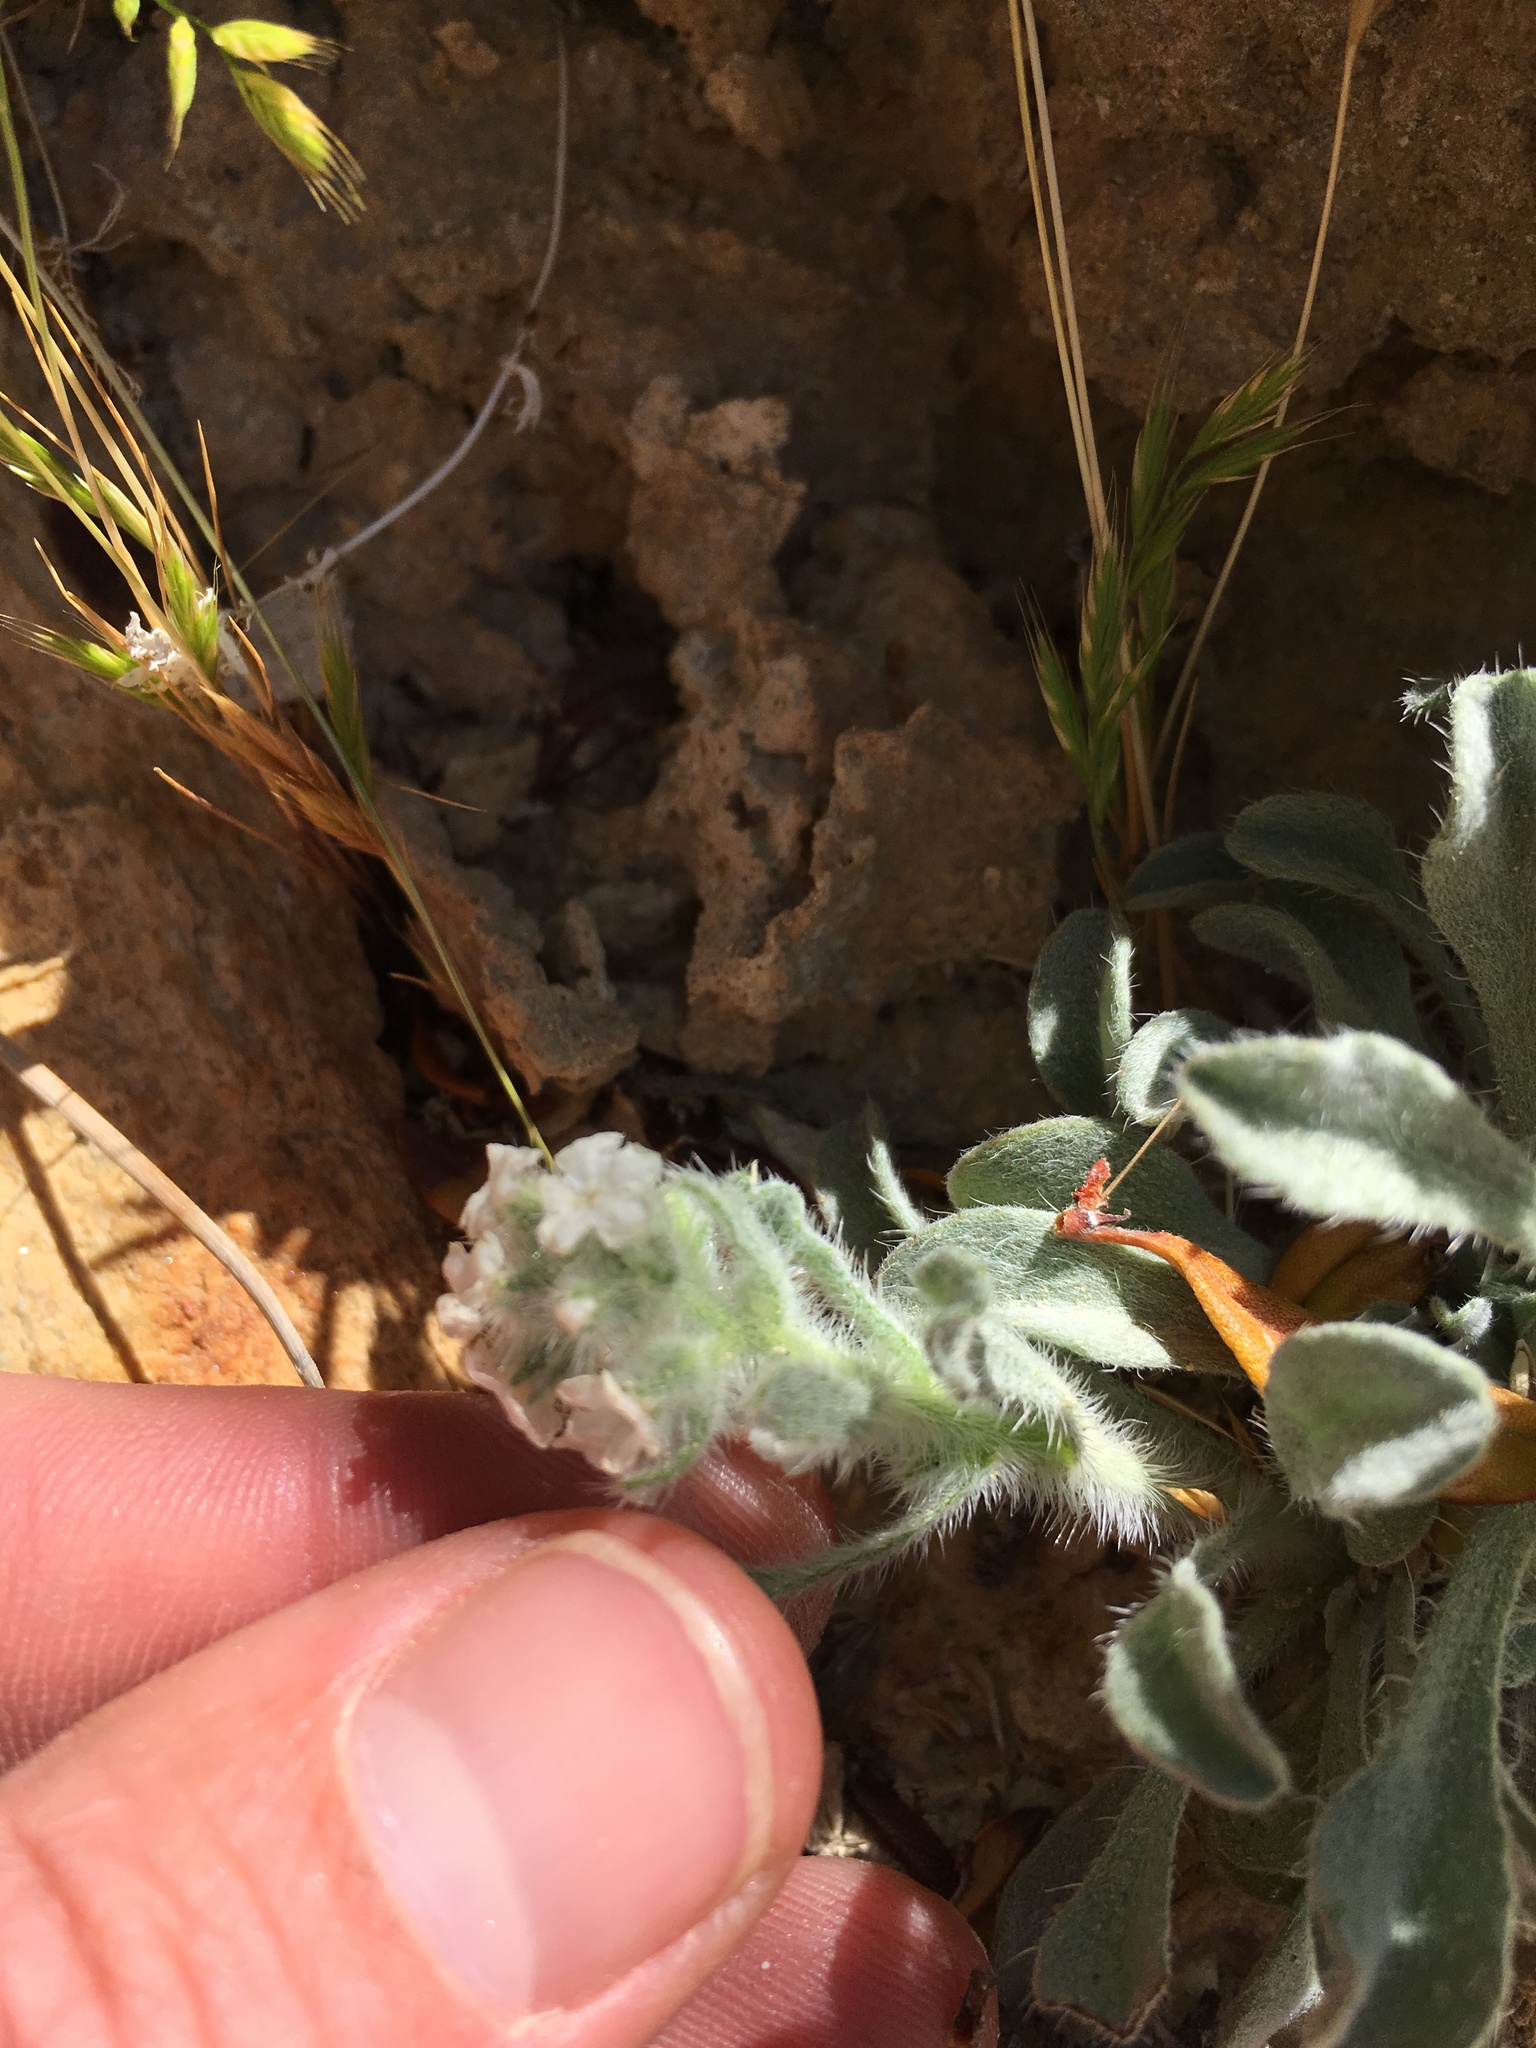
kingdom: Plantae
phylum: Tracheophyta
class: Magnoliopsida
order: Boraginales
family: Boraginaceae
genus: Oreocarya
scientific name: Oreocarya hoffmannii
